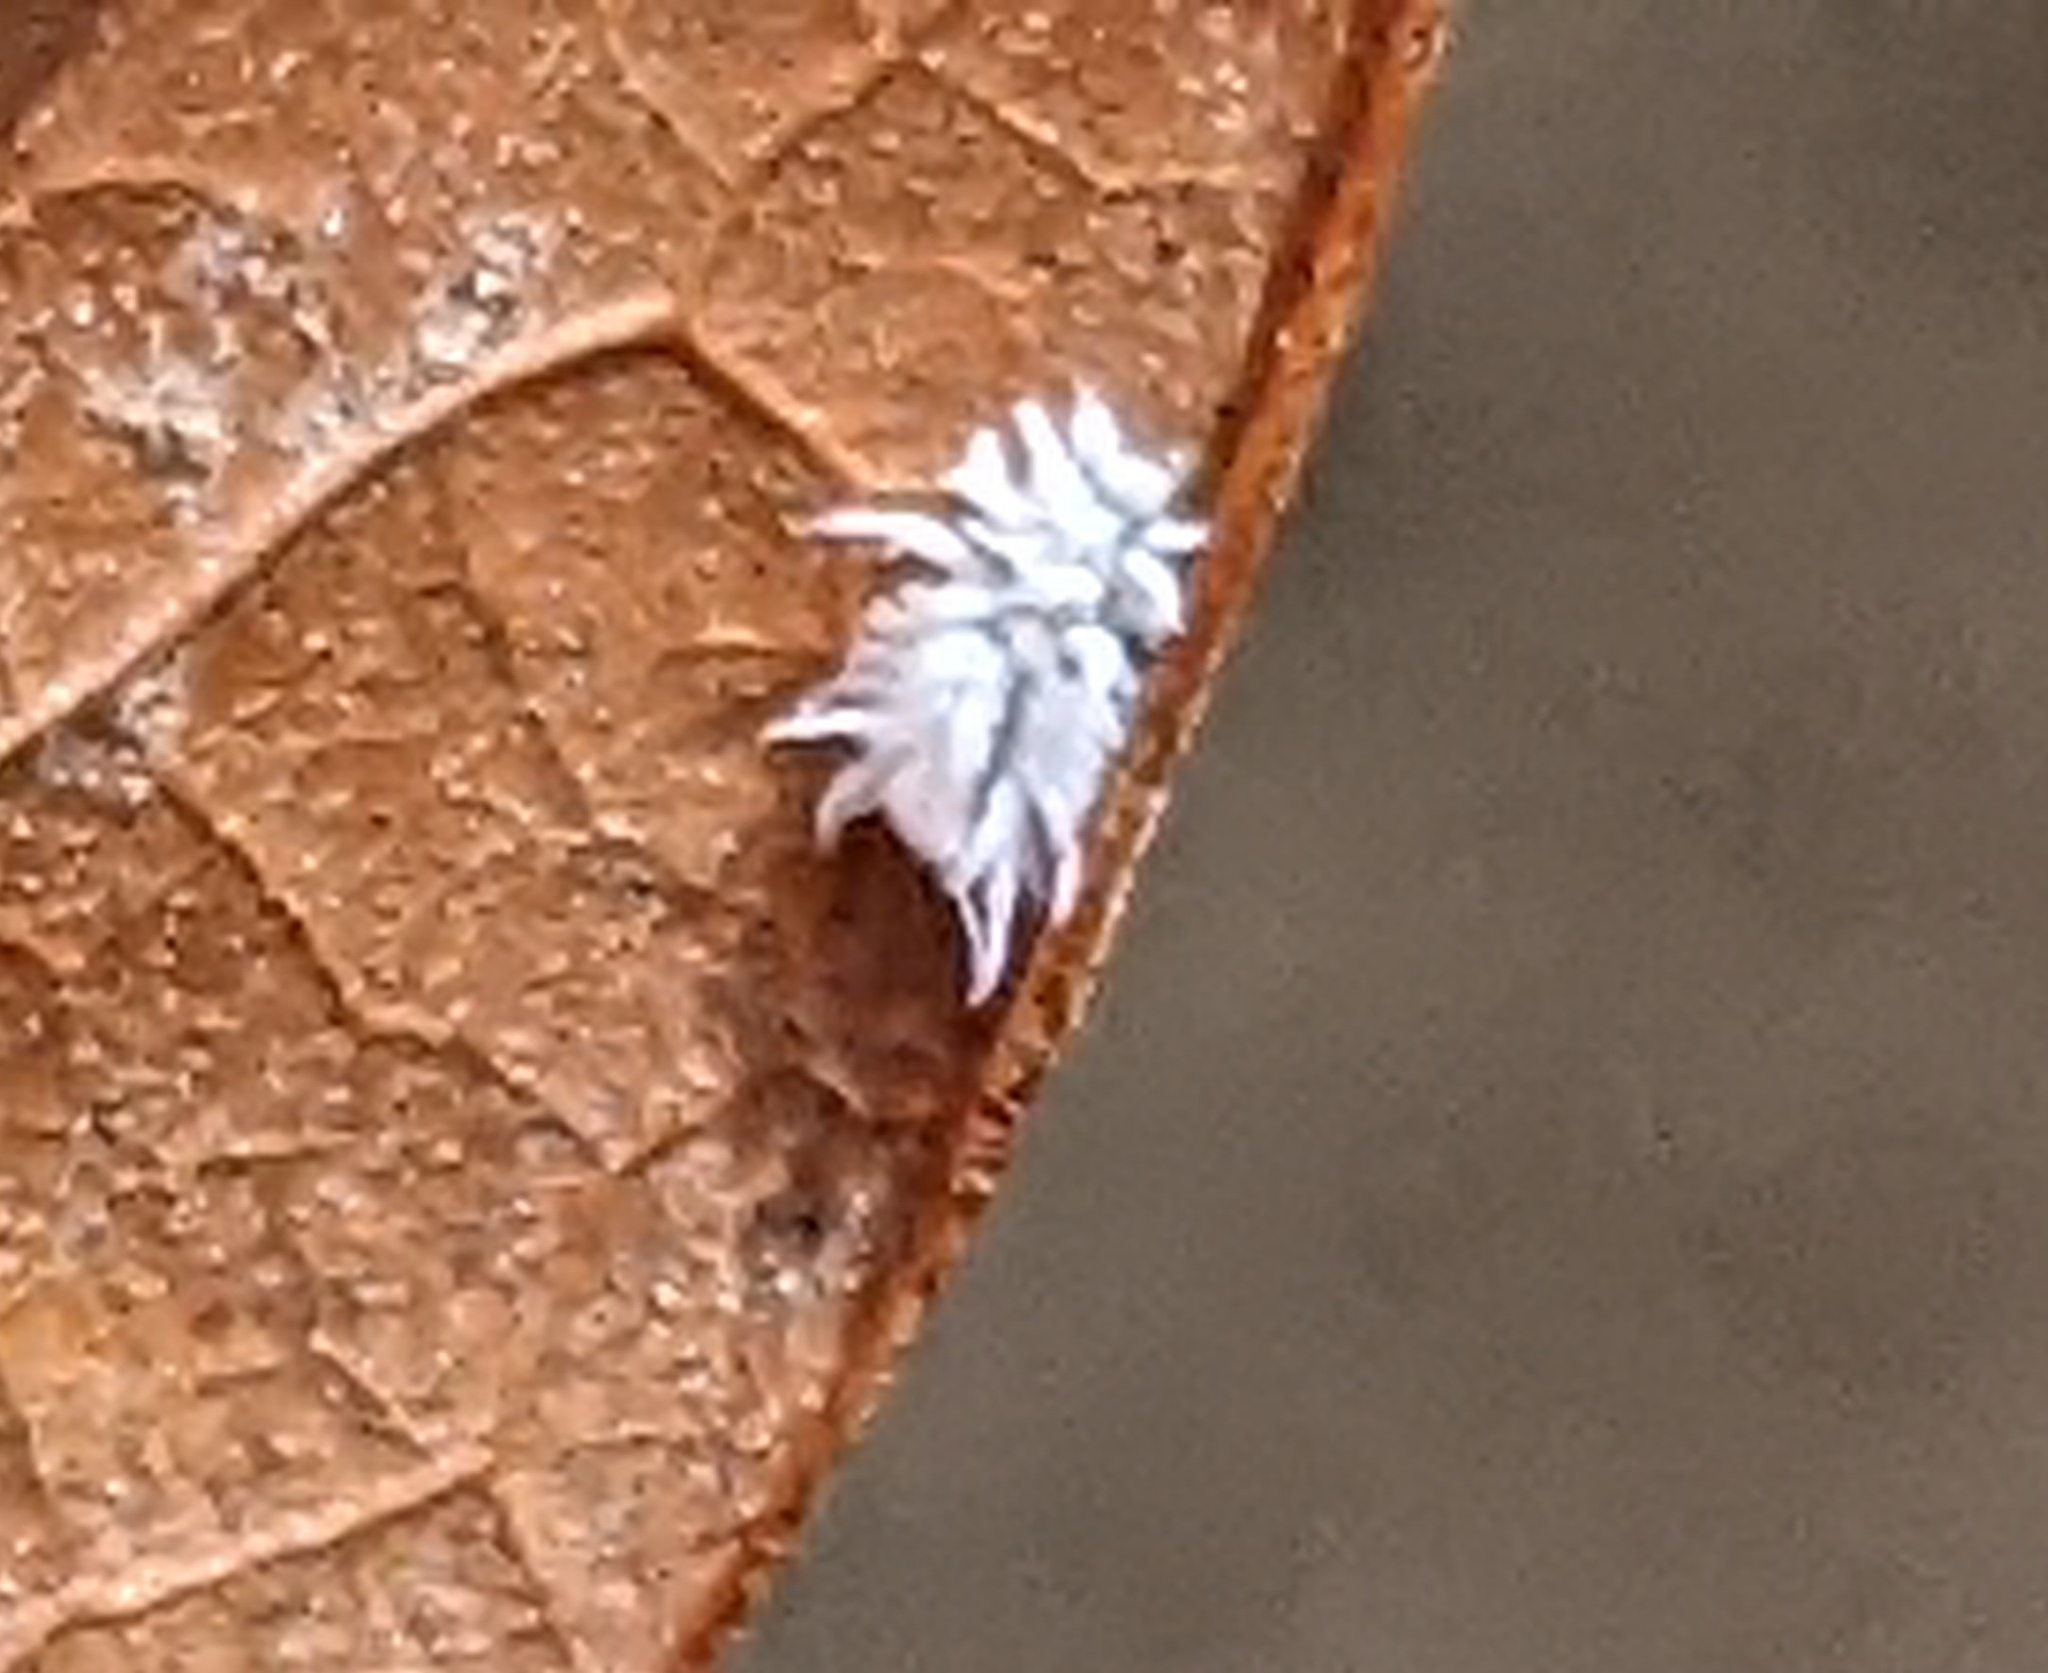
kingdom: Animalia
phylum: Arthropoda
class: Insecta
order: Coleoptera
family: Coccinellidae
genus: Cryptolaemus
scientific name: Cryptolaemus montrouzieri
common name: Mealybug destroyer
